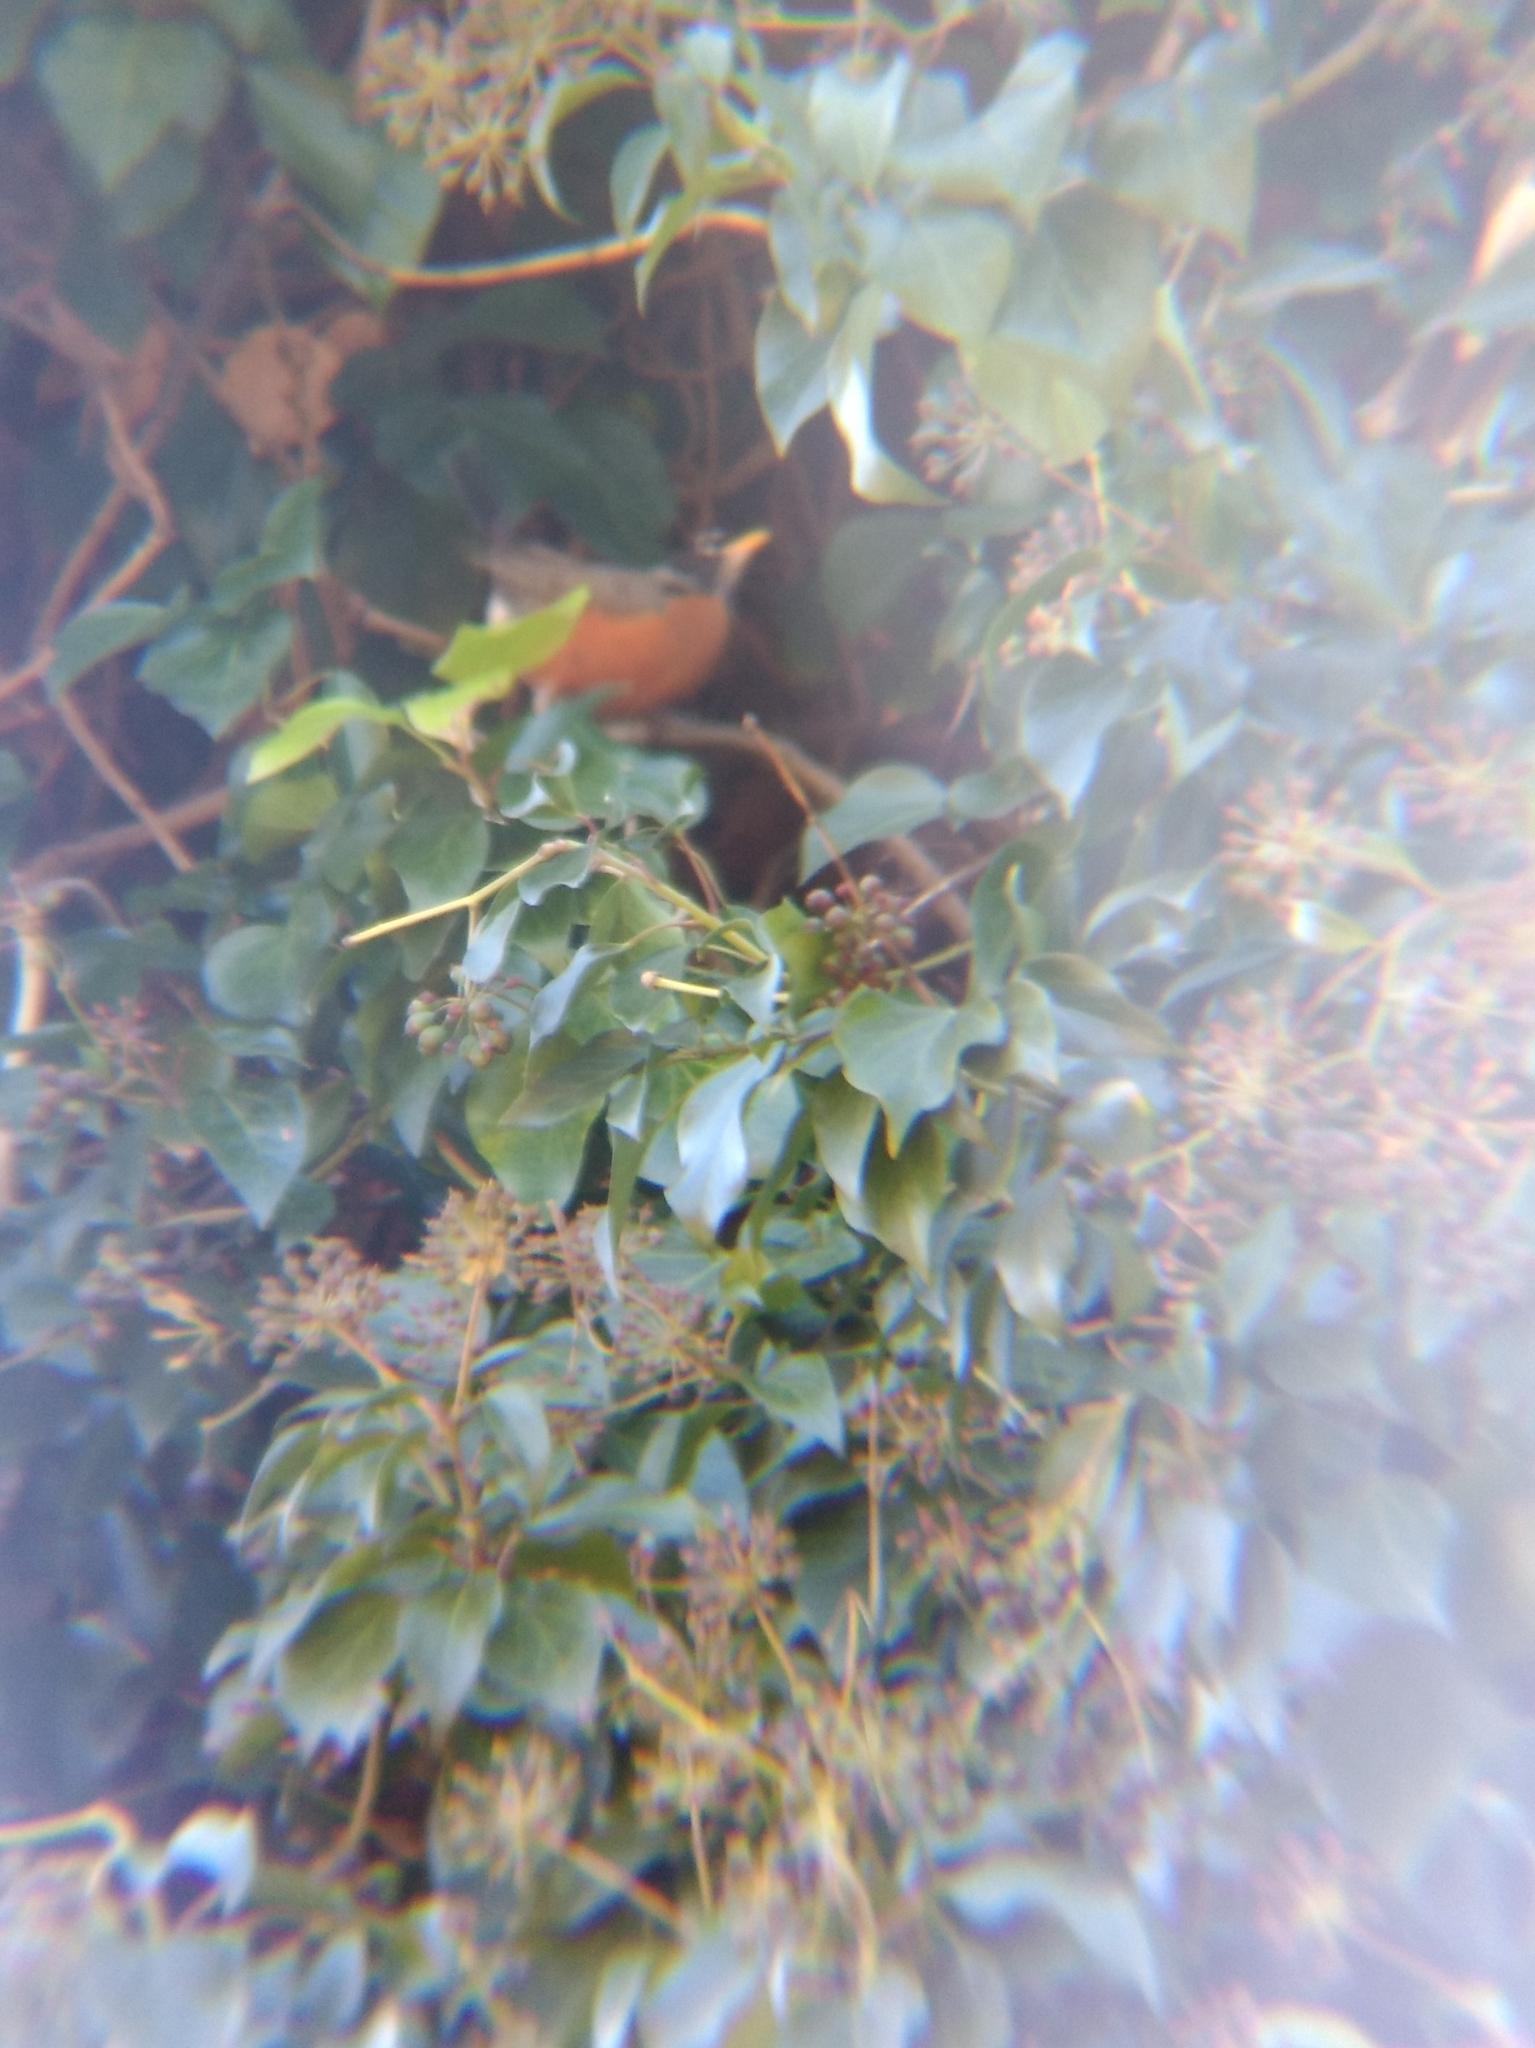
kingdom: Animalia
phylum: Chordata
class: Aves
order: Passeriformes
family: Turdidae
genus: Turdus
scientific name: Turdus migratorius
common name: American robin
